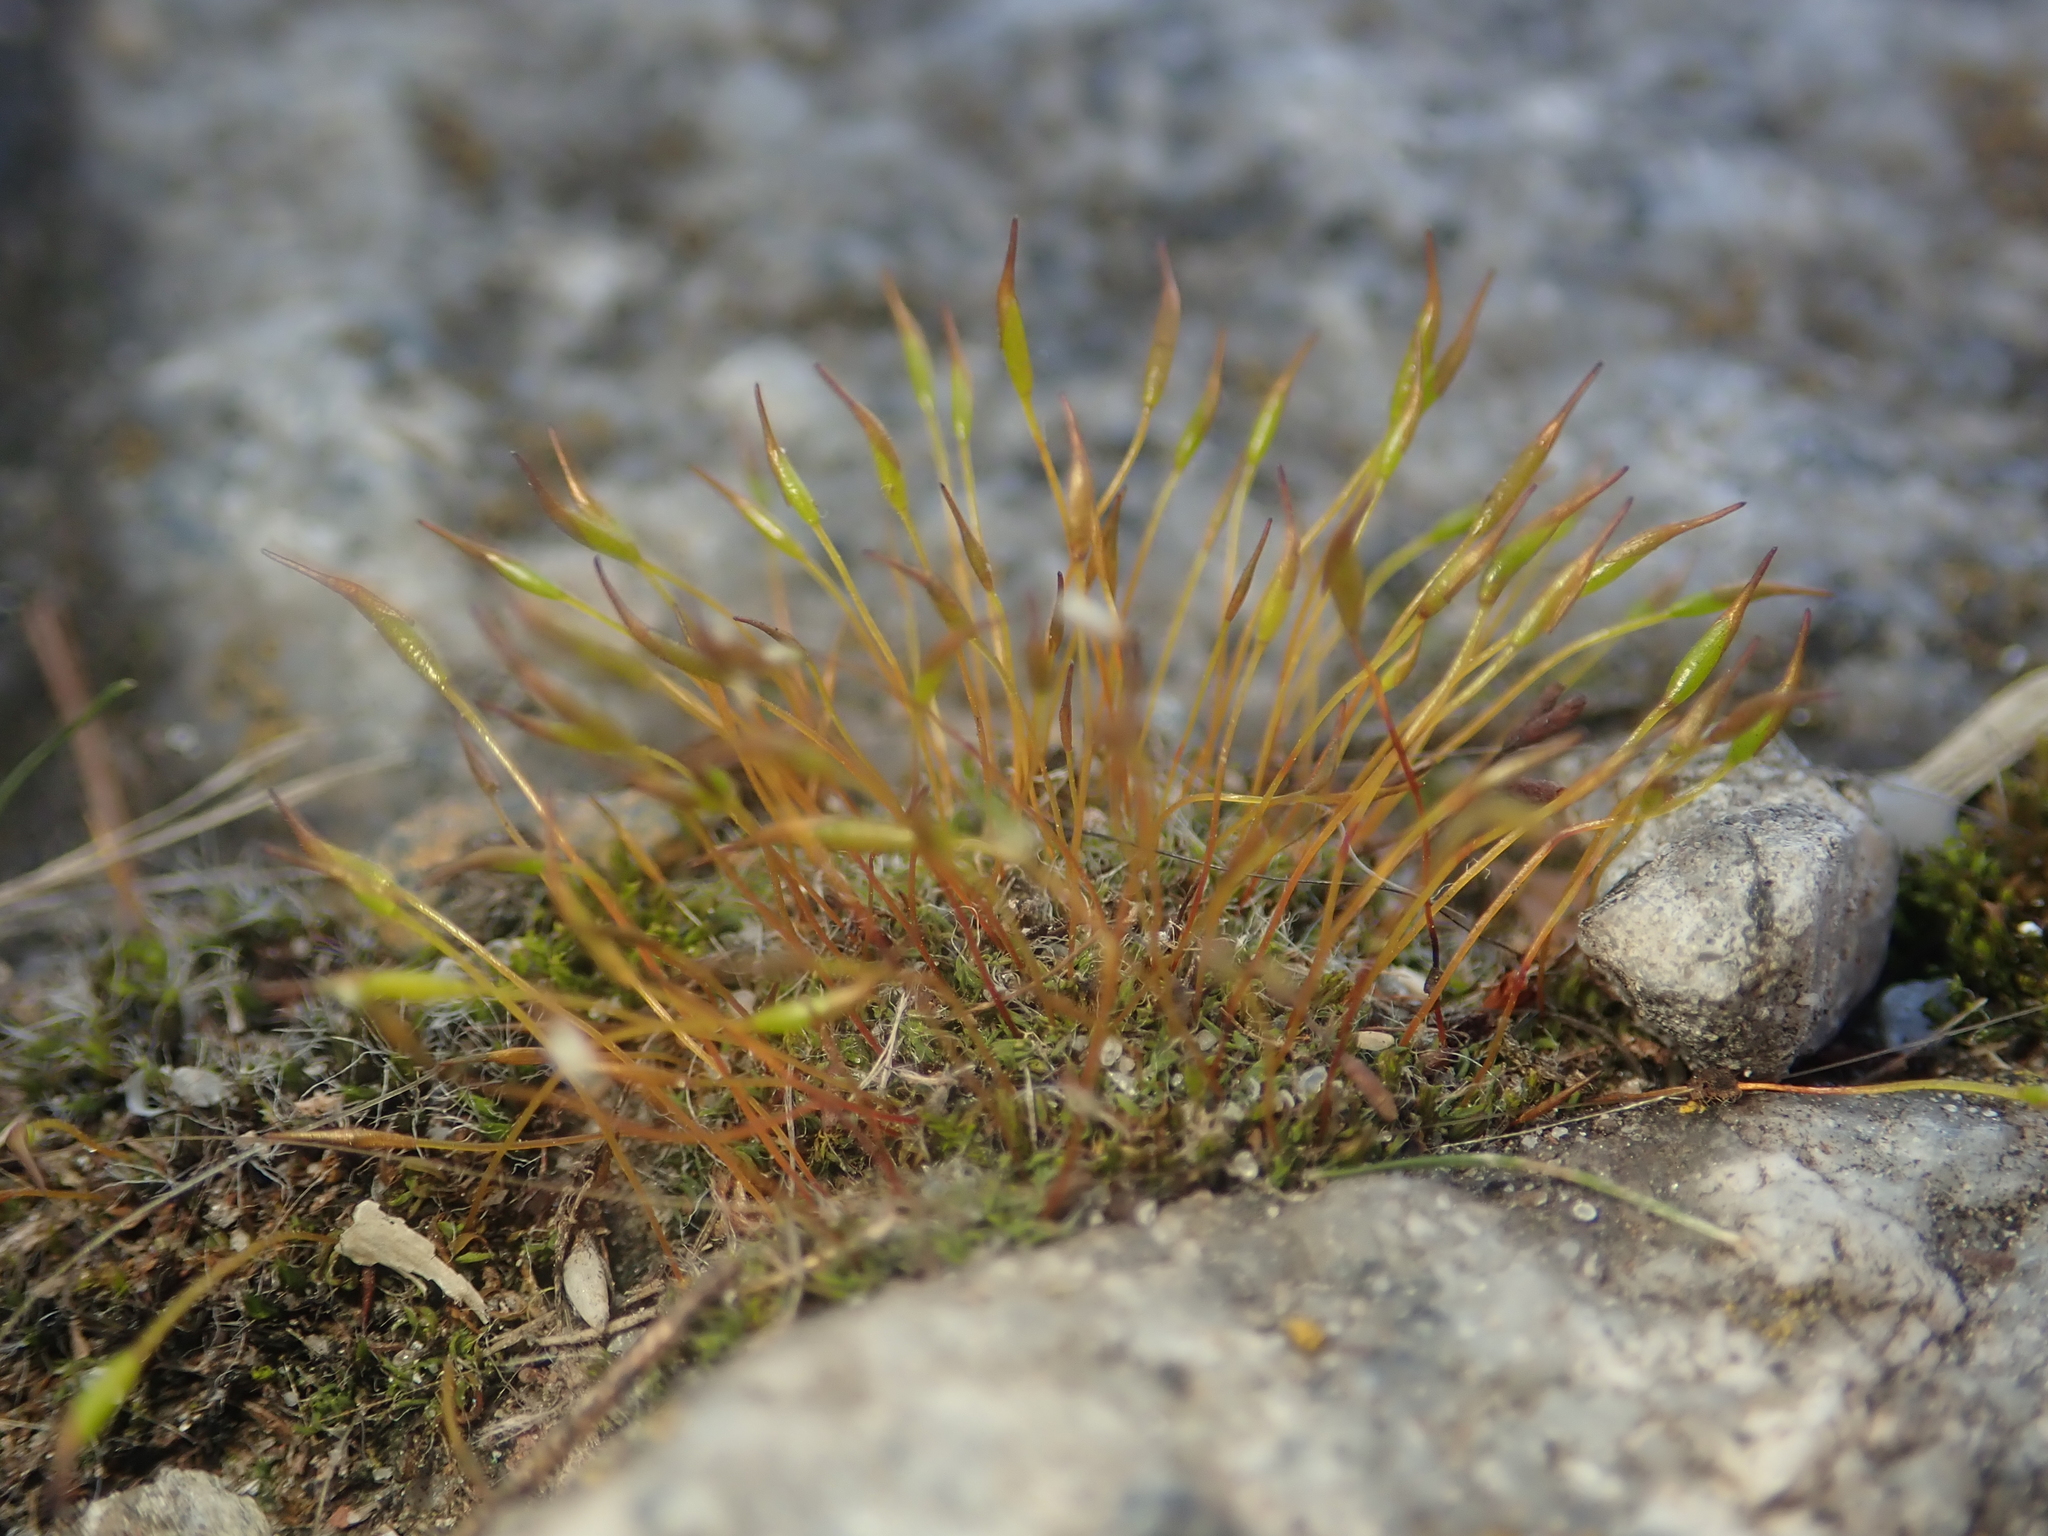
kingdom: Plantae
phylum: Bryophyta
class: Bryopsida
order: Pottiales
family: Pottiaceae
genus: Tortula
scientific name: Tortula muralis
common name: Wall screw-moss
